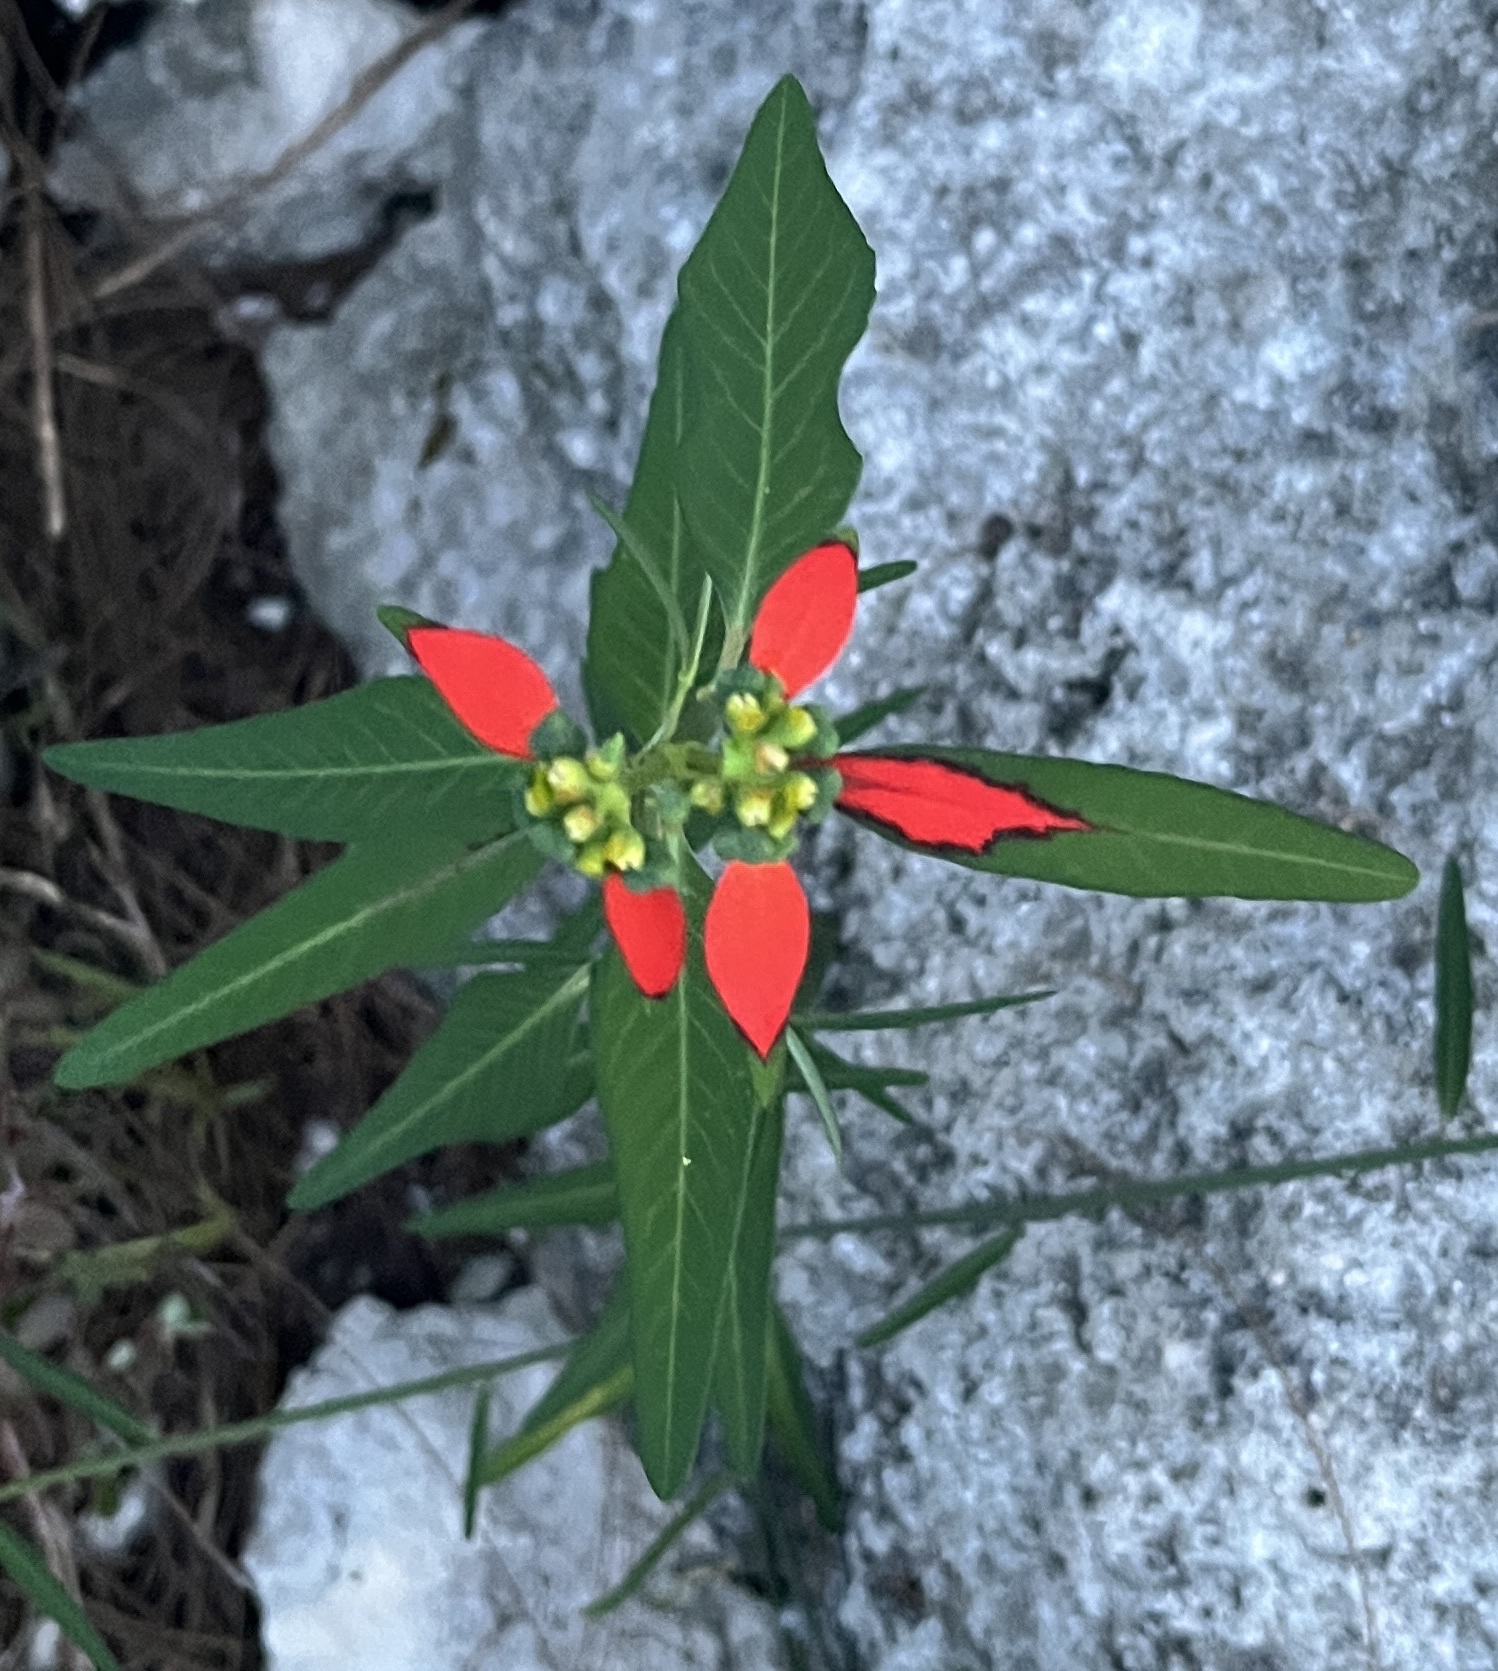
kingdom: Plantae
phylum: Tracheophyta
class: Magnoliopsida
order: Malpighiales
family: Euphorbiaceae
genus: Euphorbia
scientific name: Euphorbia heterophylla
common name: Mexican fireplant
